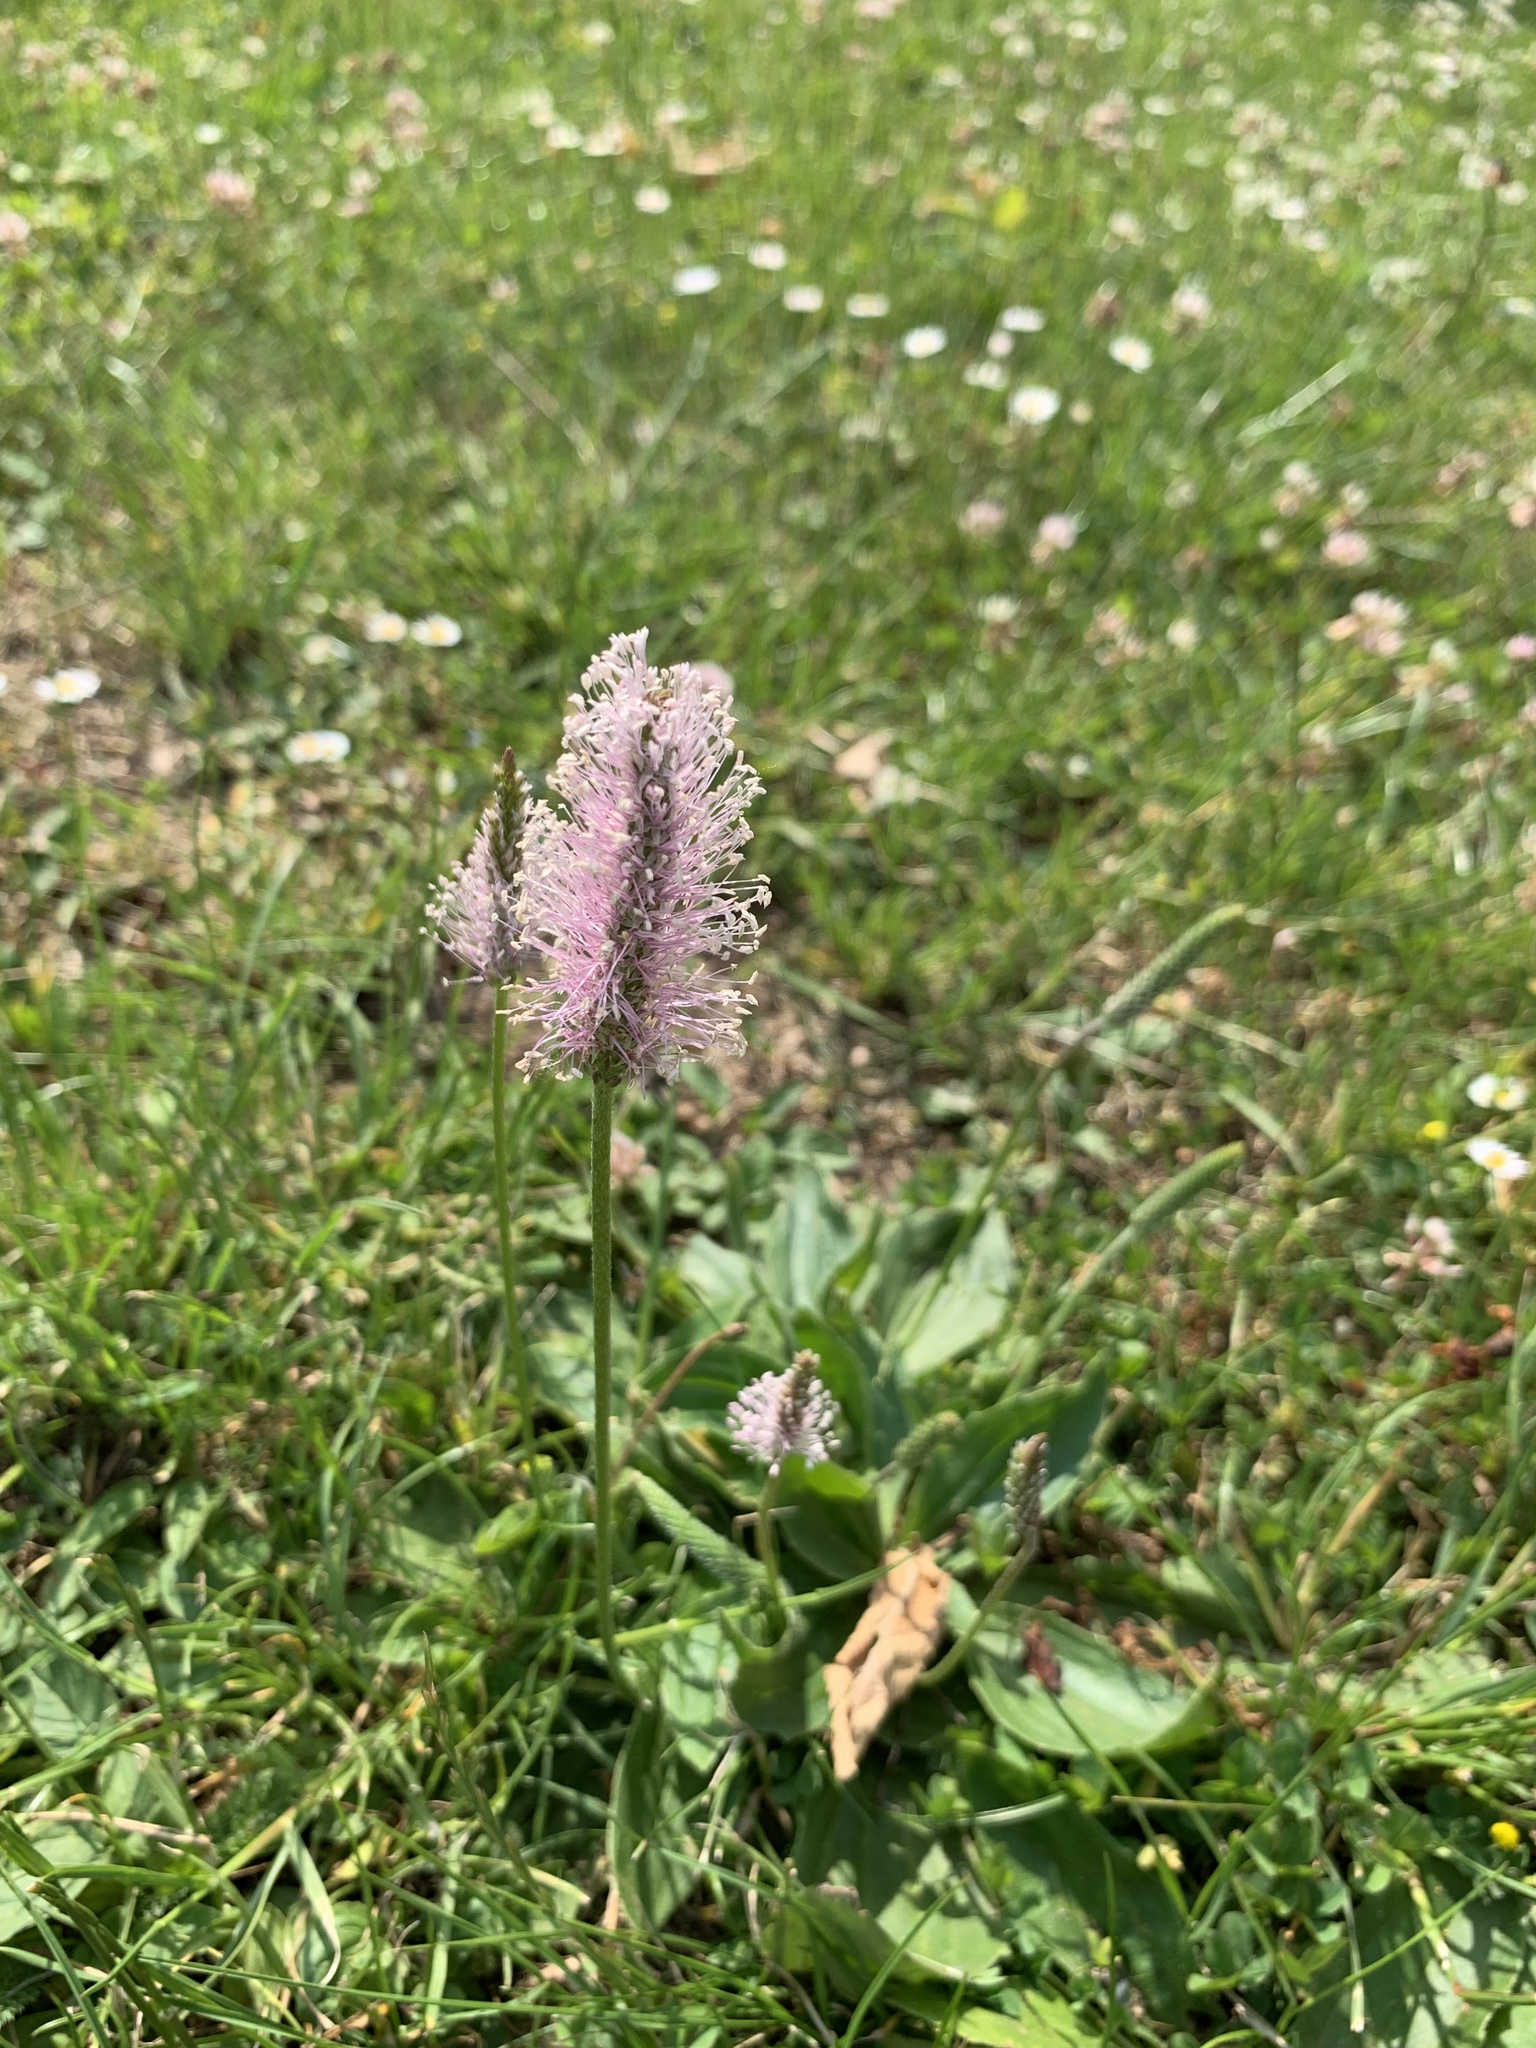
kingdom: Plantae
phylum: Tracheophyta
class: Magnoliopsida
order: Lamiales
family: Plantaginaceae
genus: Plantago
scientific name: Plantago media
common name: Hoary plantain
